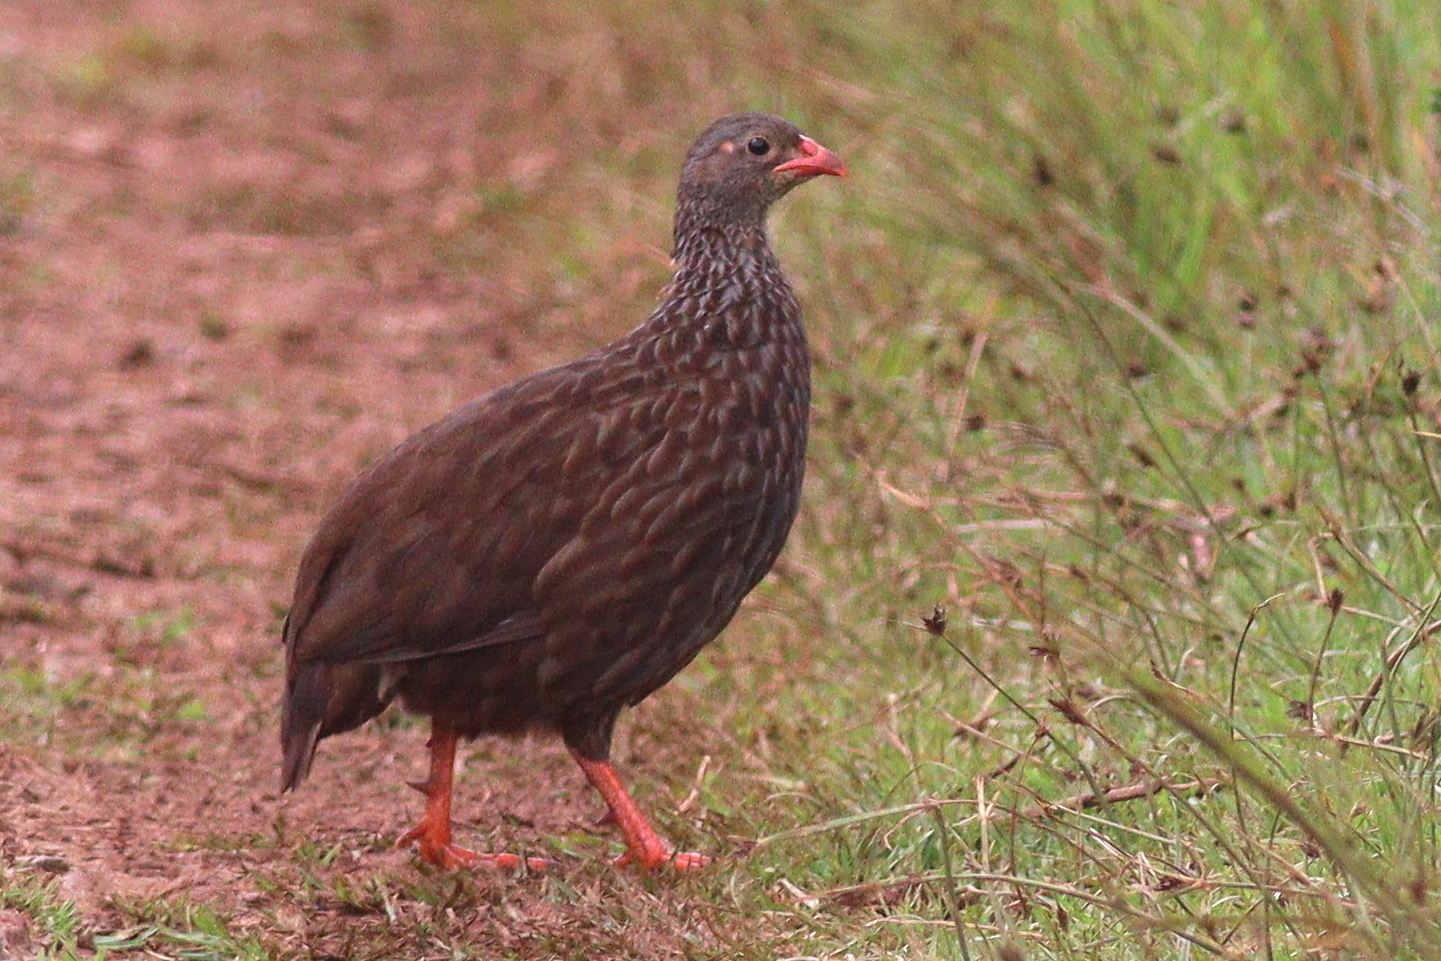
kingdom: Animalia
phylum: Chordata
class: Aves
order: Galliformes
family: Phasianidae
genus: Pternistis
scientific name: Pternistis squamatus
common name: Scaly francolin
